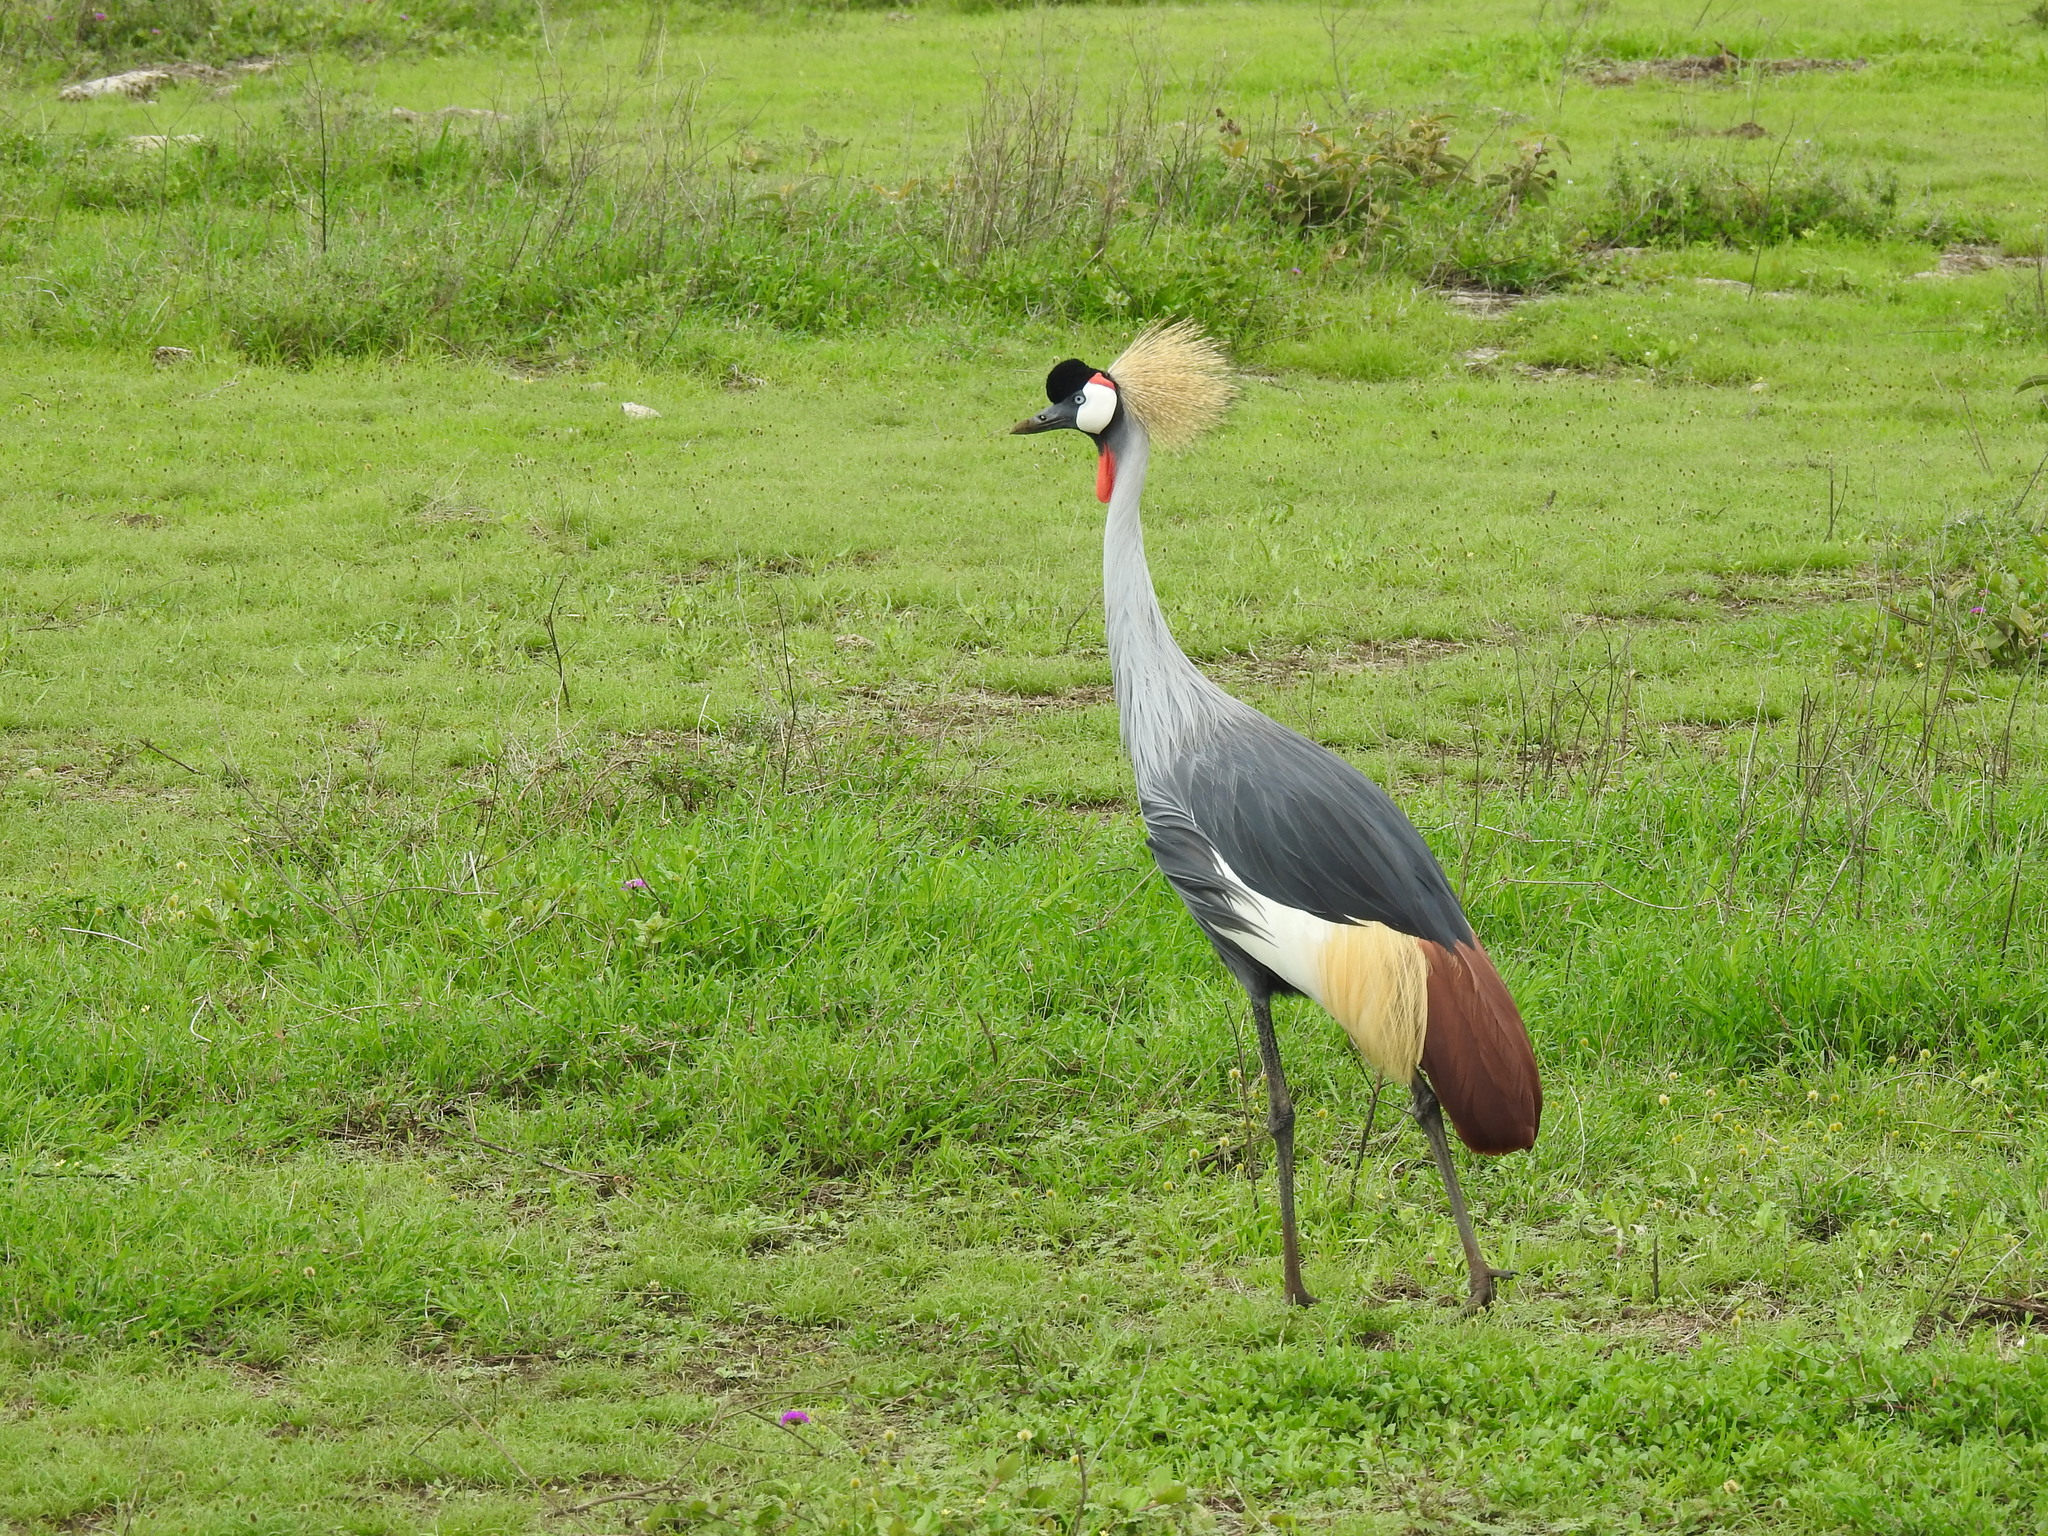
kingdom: Animalia
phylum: Chordata
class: Aves
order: Gruiformes
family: Gruidae
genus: Balearica
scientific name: Balearica regulorum
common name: Grey crowned crane
